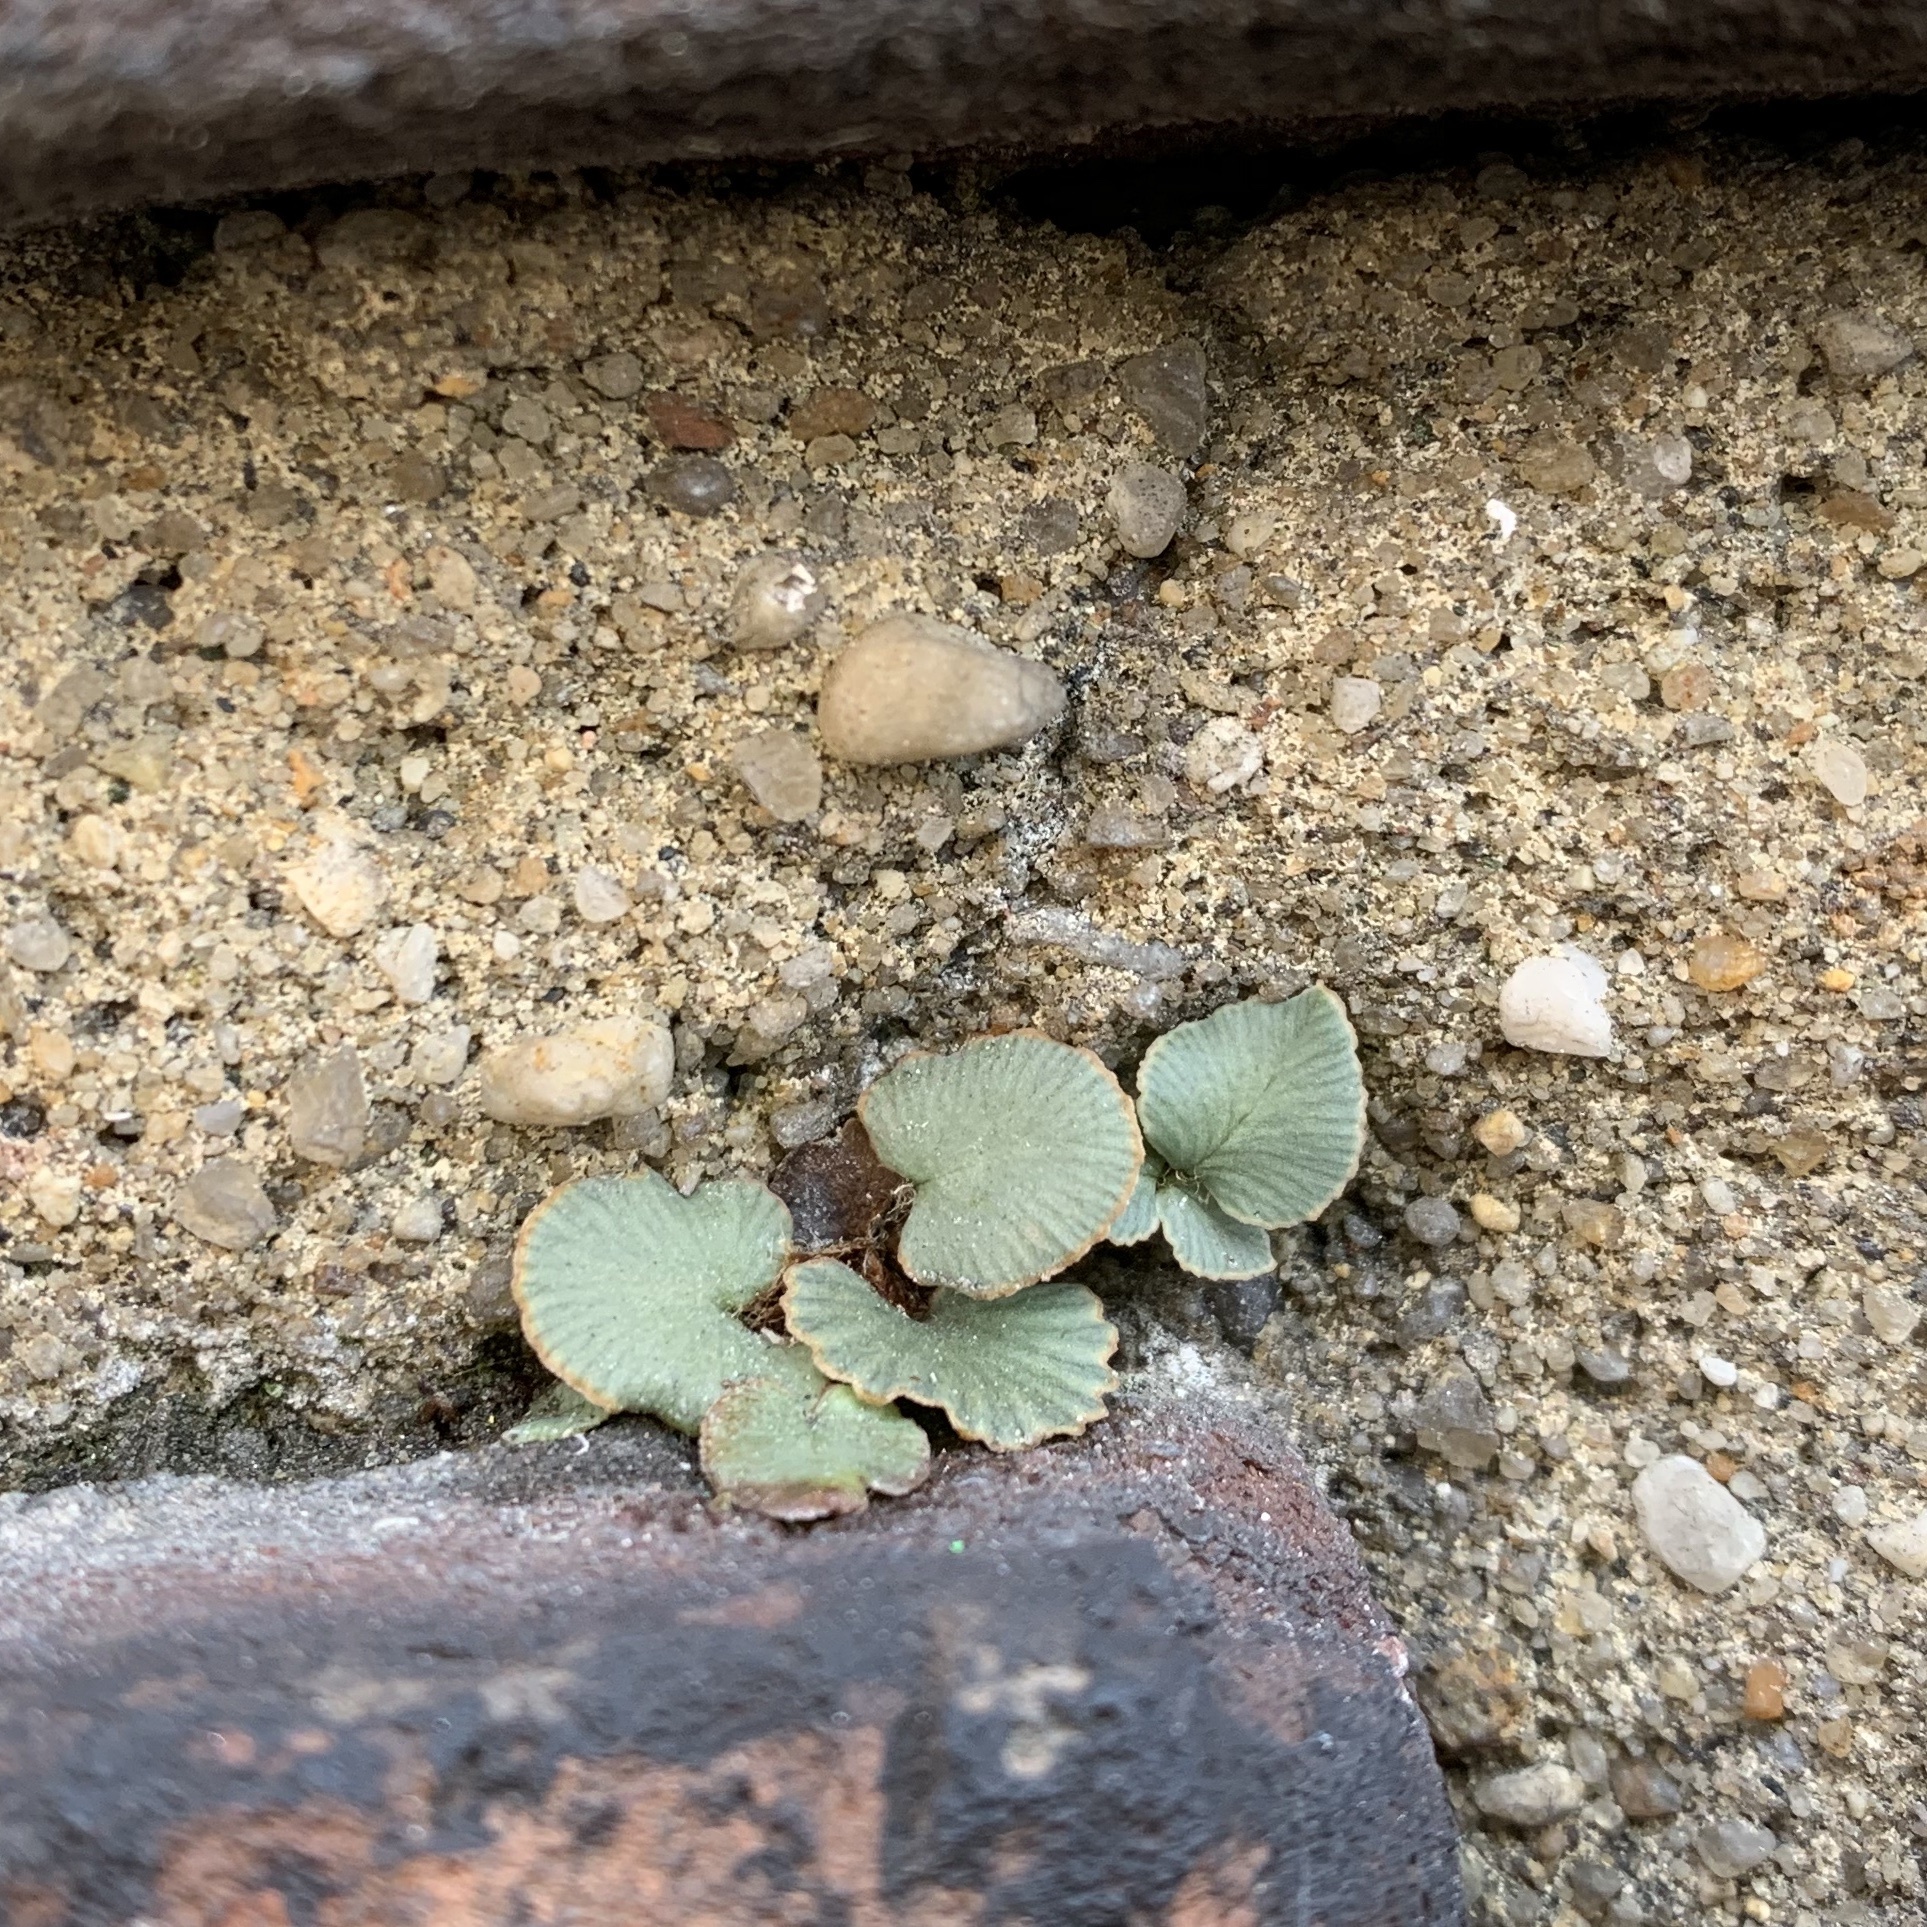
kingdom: Plantae
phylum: Tracheophyta
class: Polypodiopsida
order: Polypodiales
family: Pteridaceae
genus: Pellaea
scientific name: Pellaea atropurpurea
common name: Hairy cliffbrake
